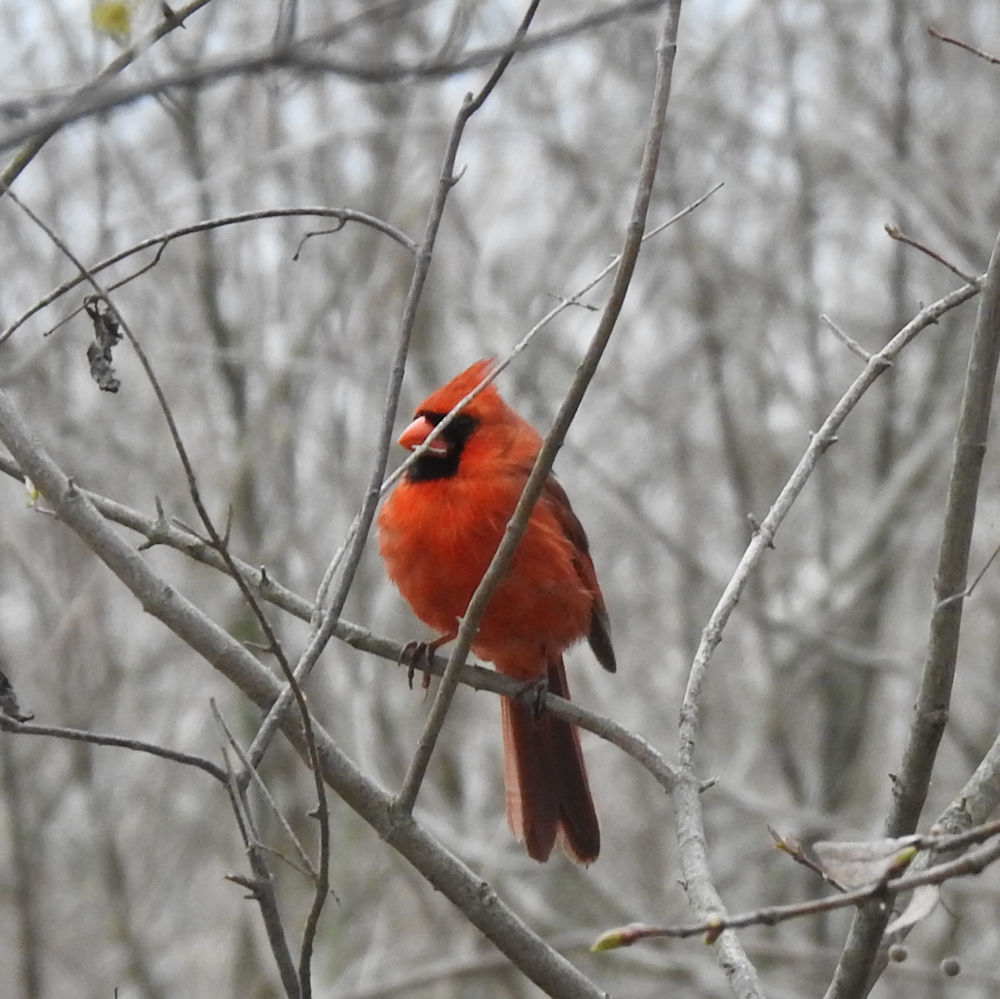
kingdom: Animalia
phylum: Chordata
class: Aves
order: Passeriformes
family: Cardinalidae
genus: Cardinalis
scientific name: Cardinalis cardinalis
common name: Northern cardinal
